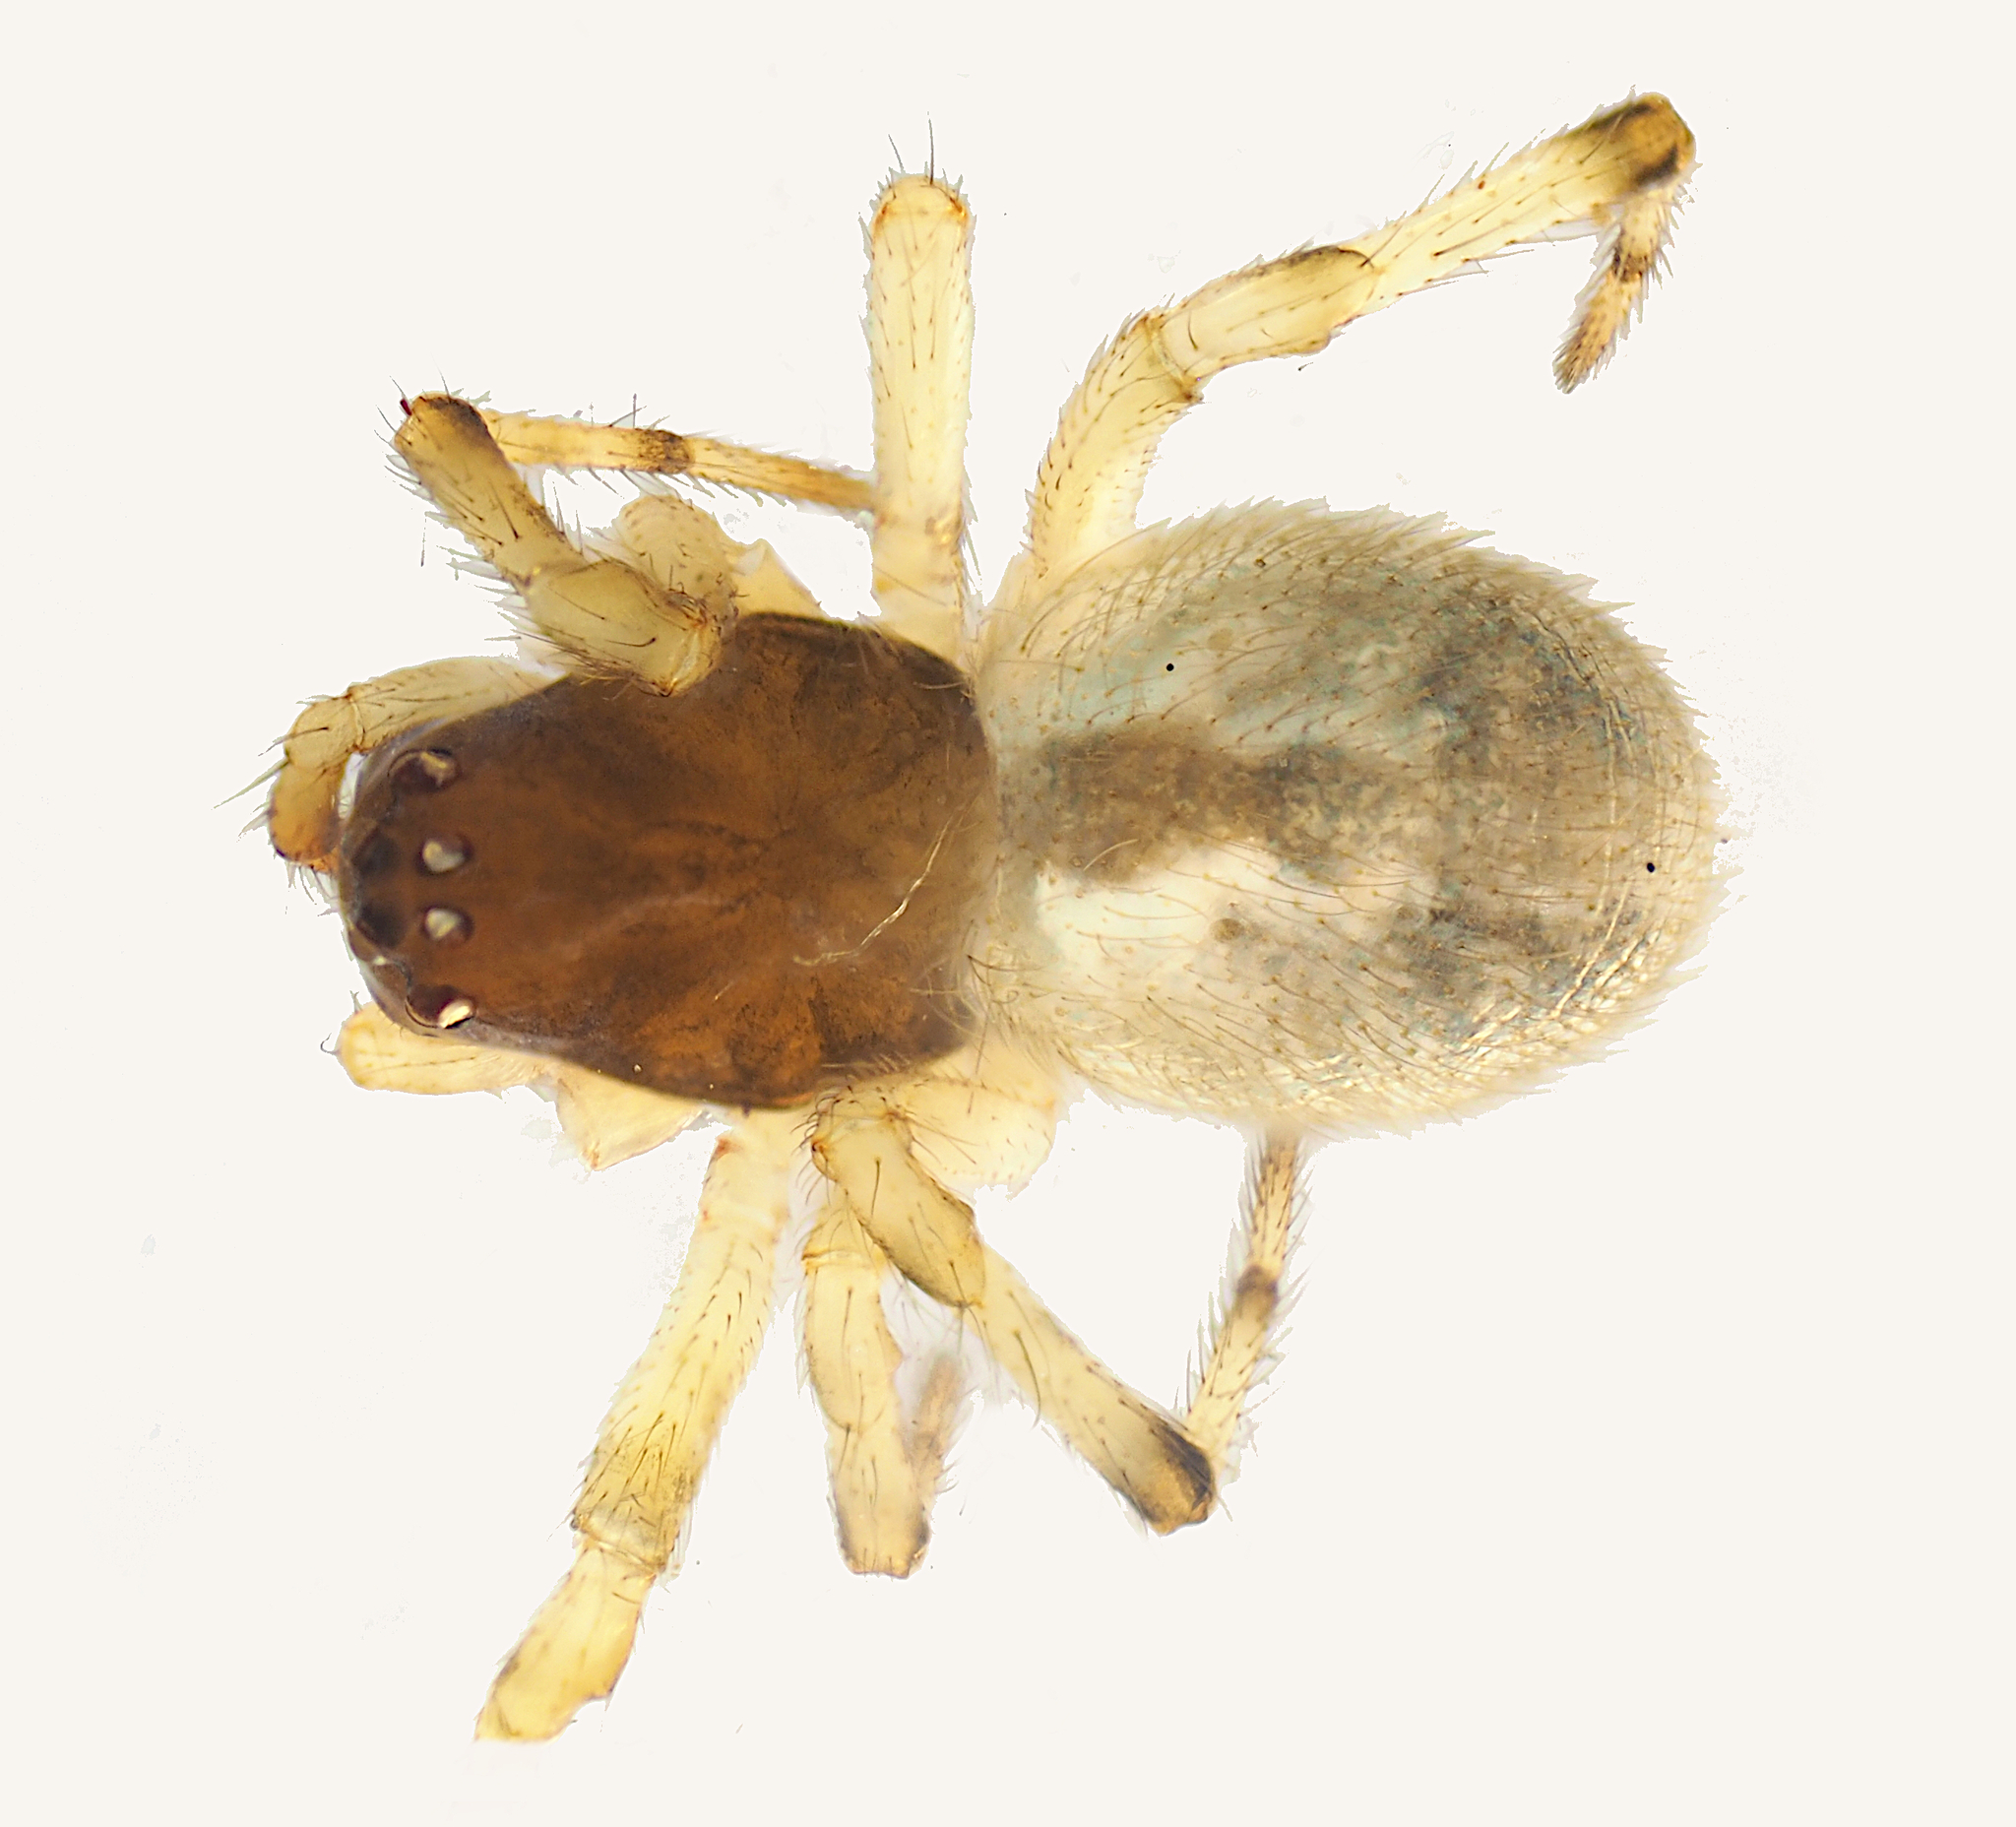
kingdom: Animalia
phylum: Arthropoda
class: Arachnida
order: Araneae
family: Theridiidae
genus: Theridion
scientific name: Theridion theridioides
